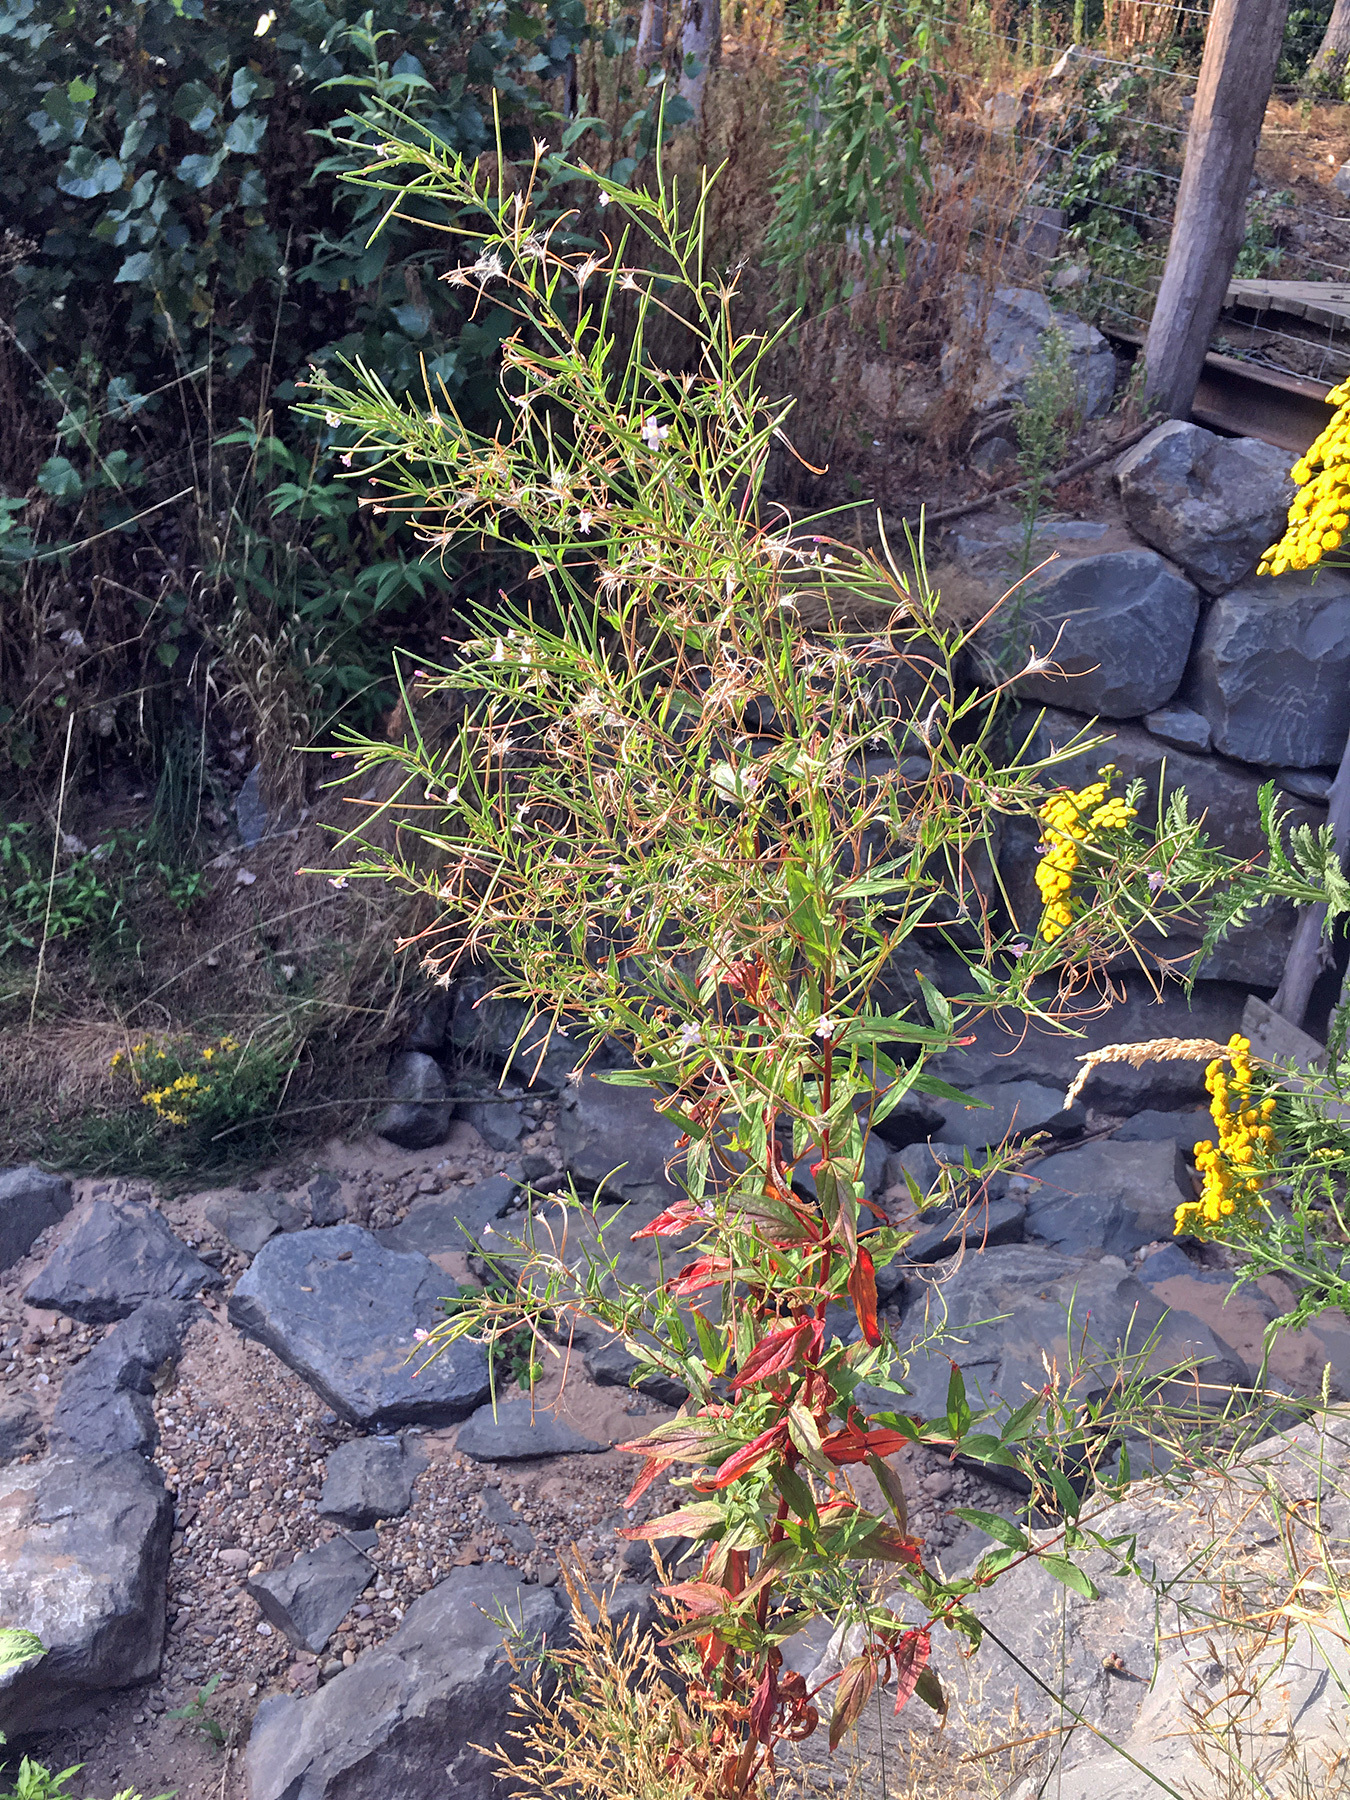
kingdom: Plantae
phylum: Tracheophyta
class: Magnoliopsida
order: Myrtales
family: Onagraceae
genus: Epilobium
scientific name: Epilobium ciliatum
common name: American willowherb
